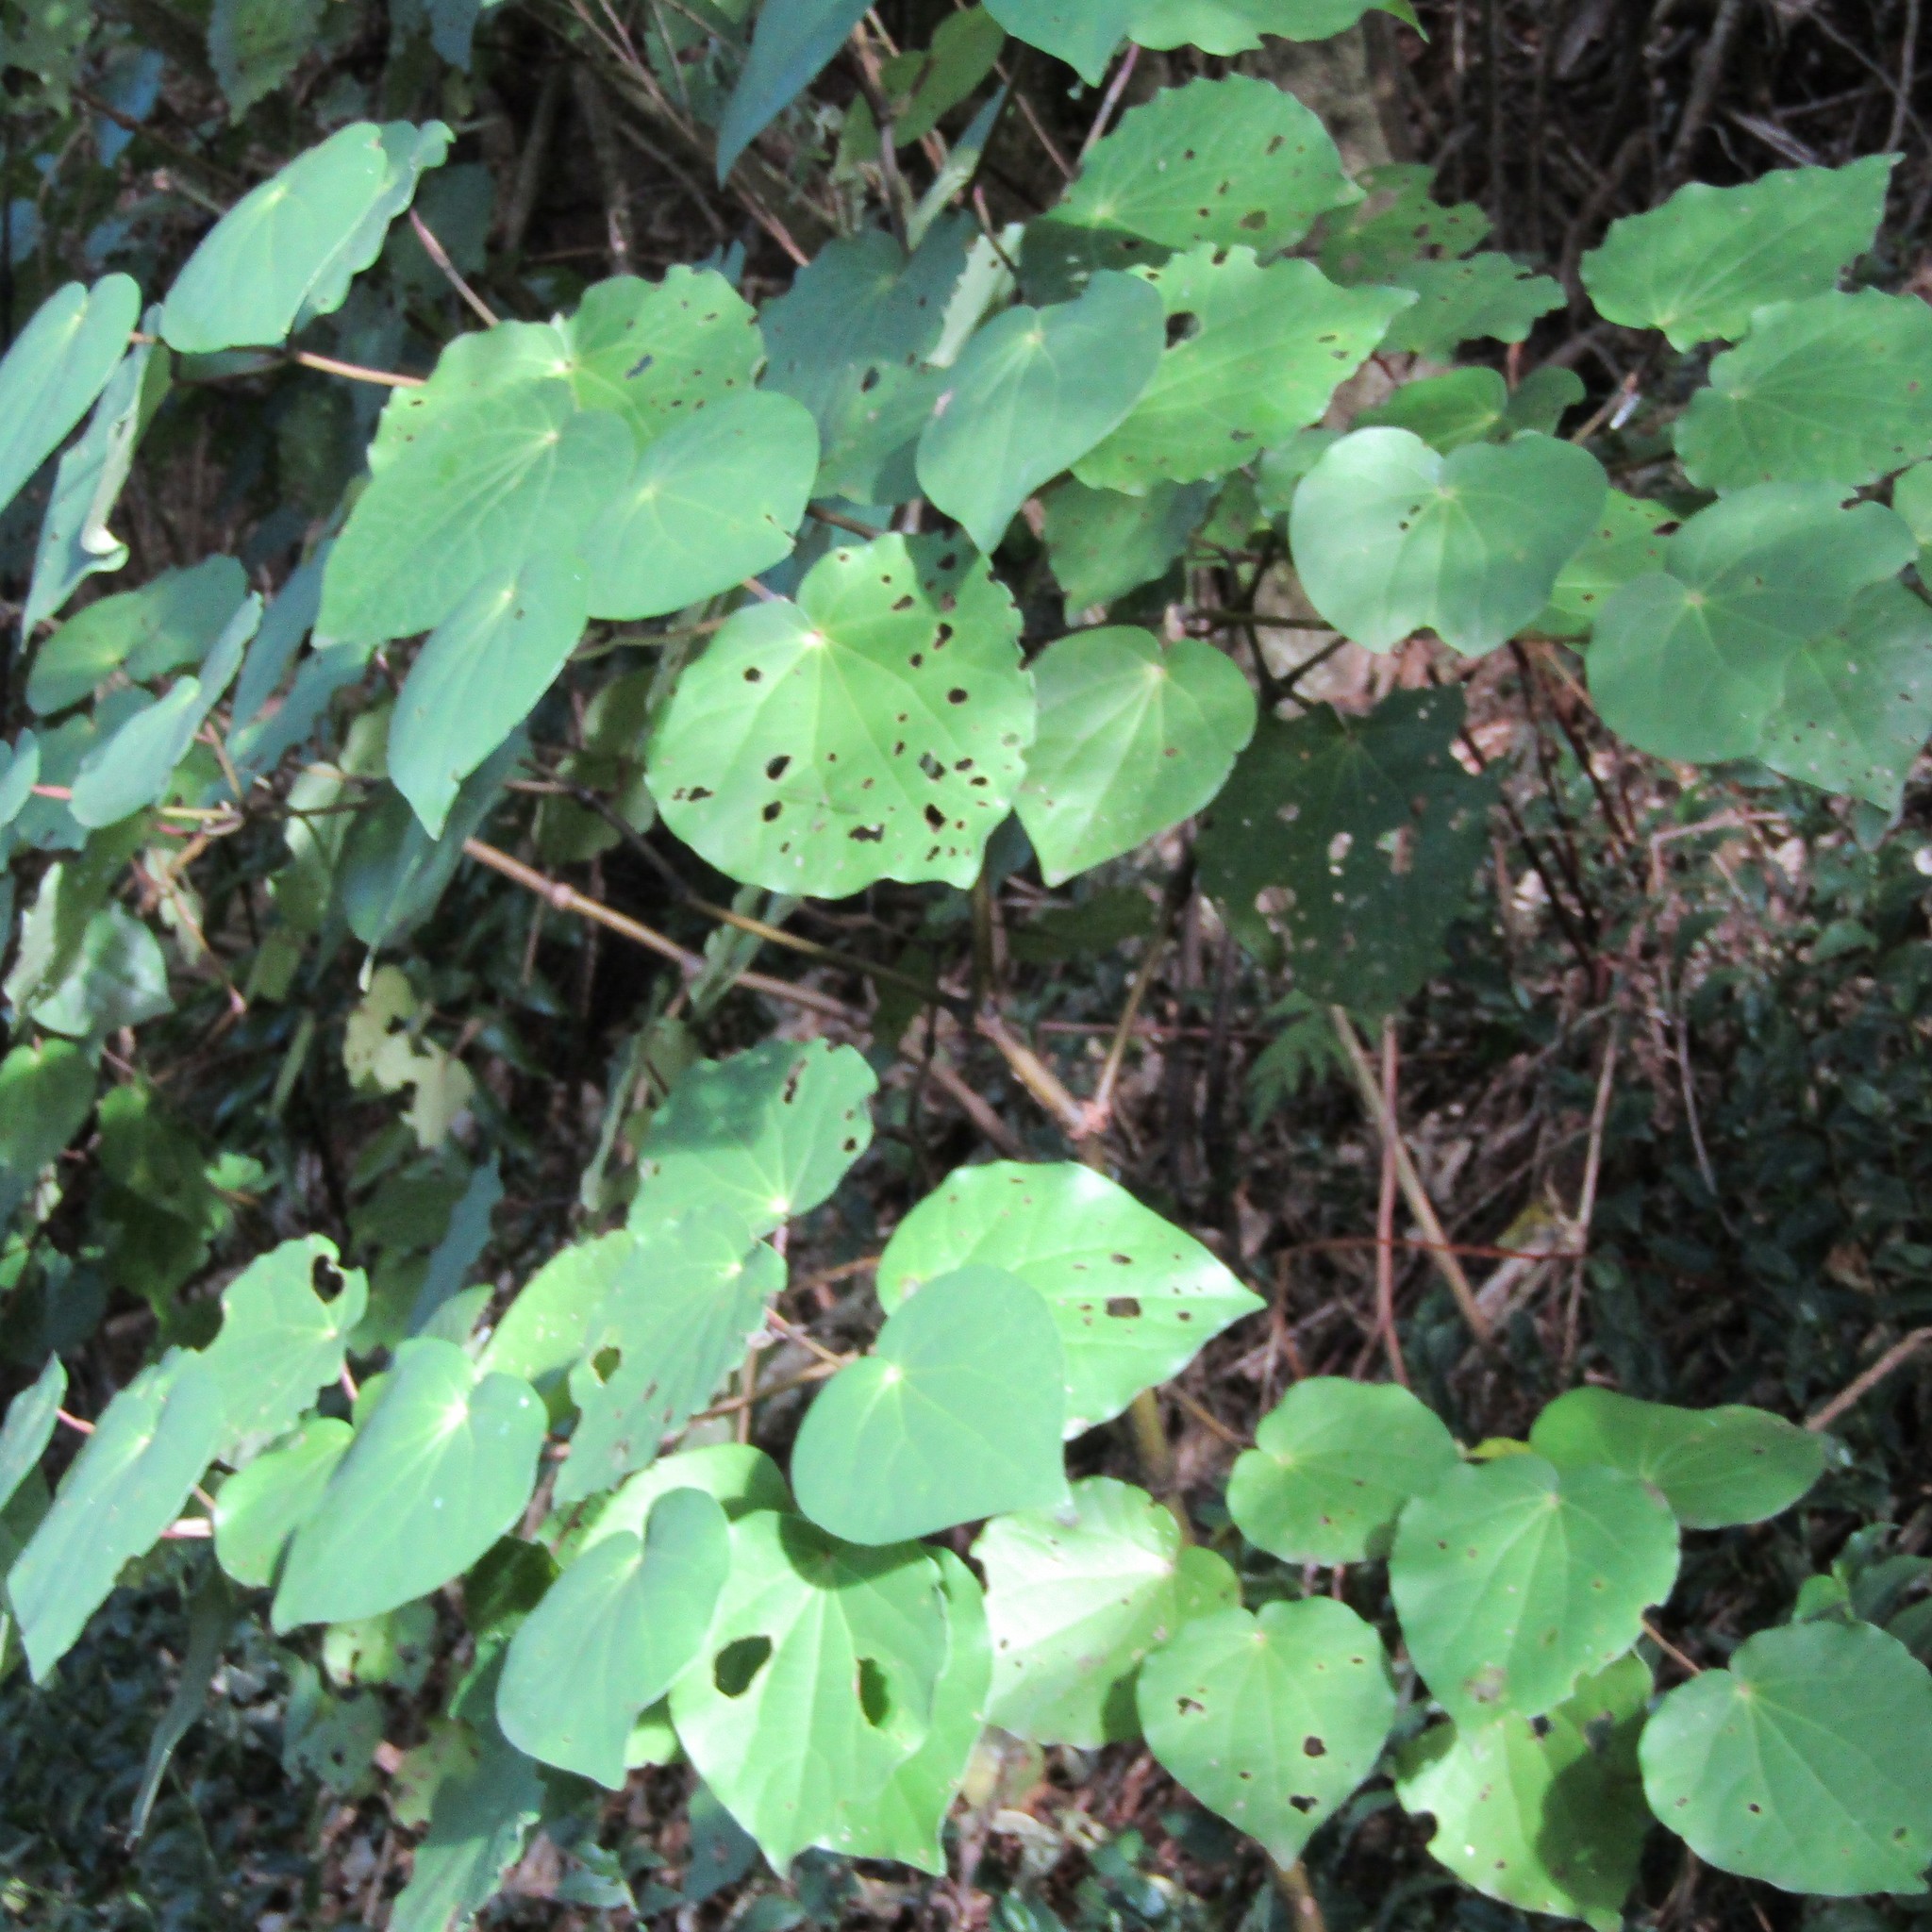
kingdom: Plantae
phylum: Tracheophyta
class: Magnoliopsida
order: Piperales
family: Piperaceae
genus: Macropiper
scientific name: Macropiper excelsum
